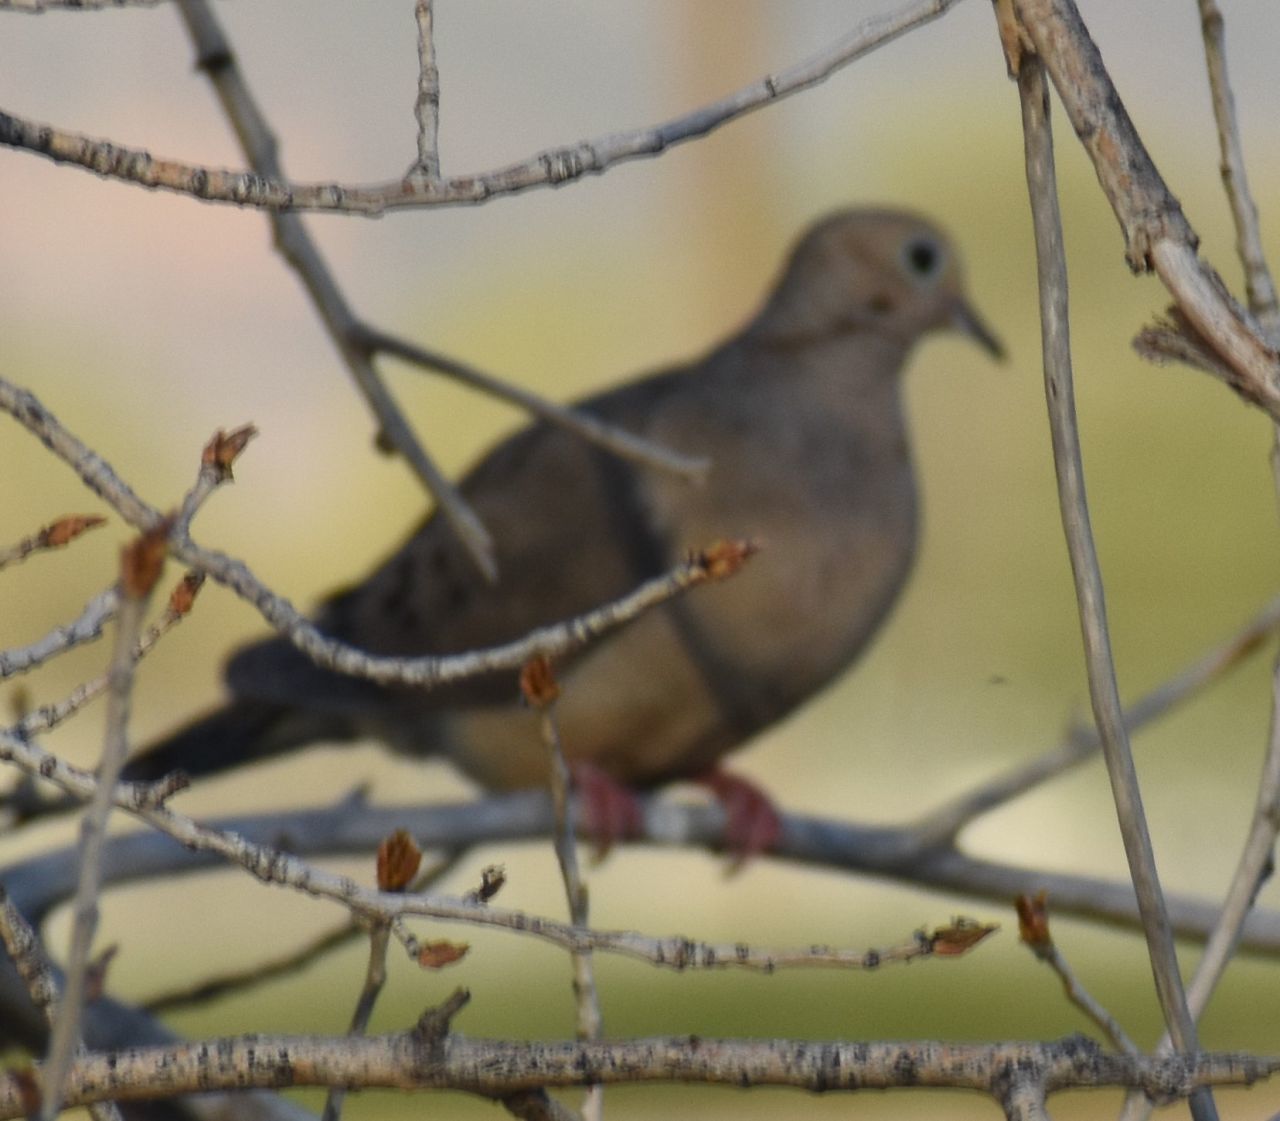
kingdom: Animalia
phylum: Chordata
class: Aves
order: Columbiformes
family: Columbidae
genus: Zenaida
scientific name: Zenaida macroura
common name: Mourning dove
